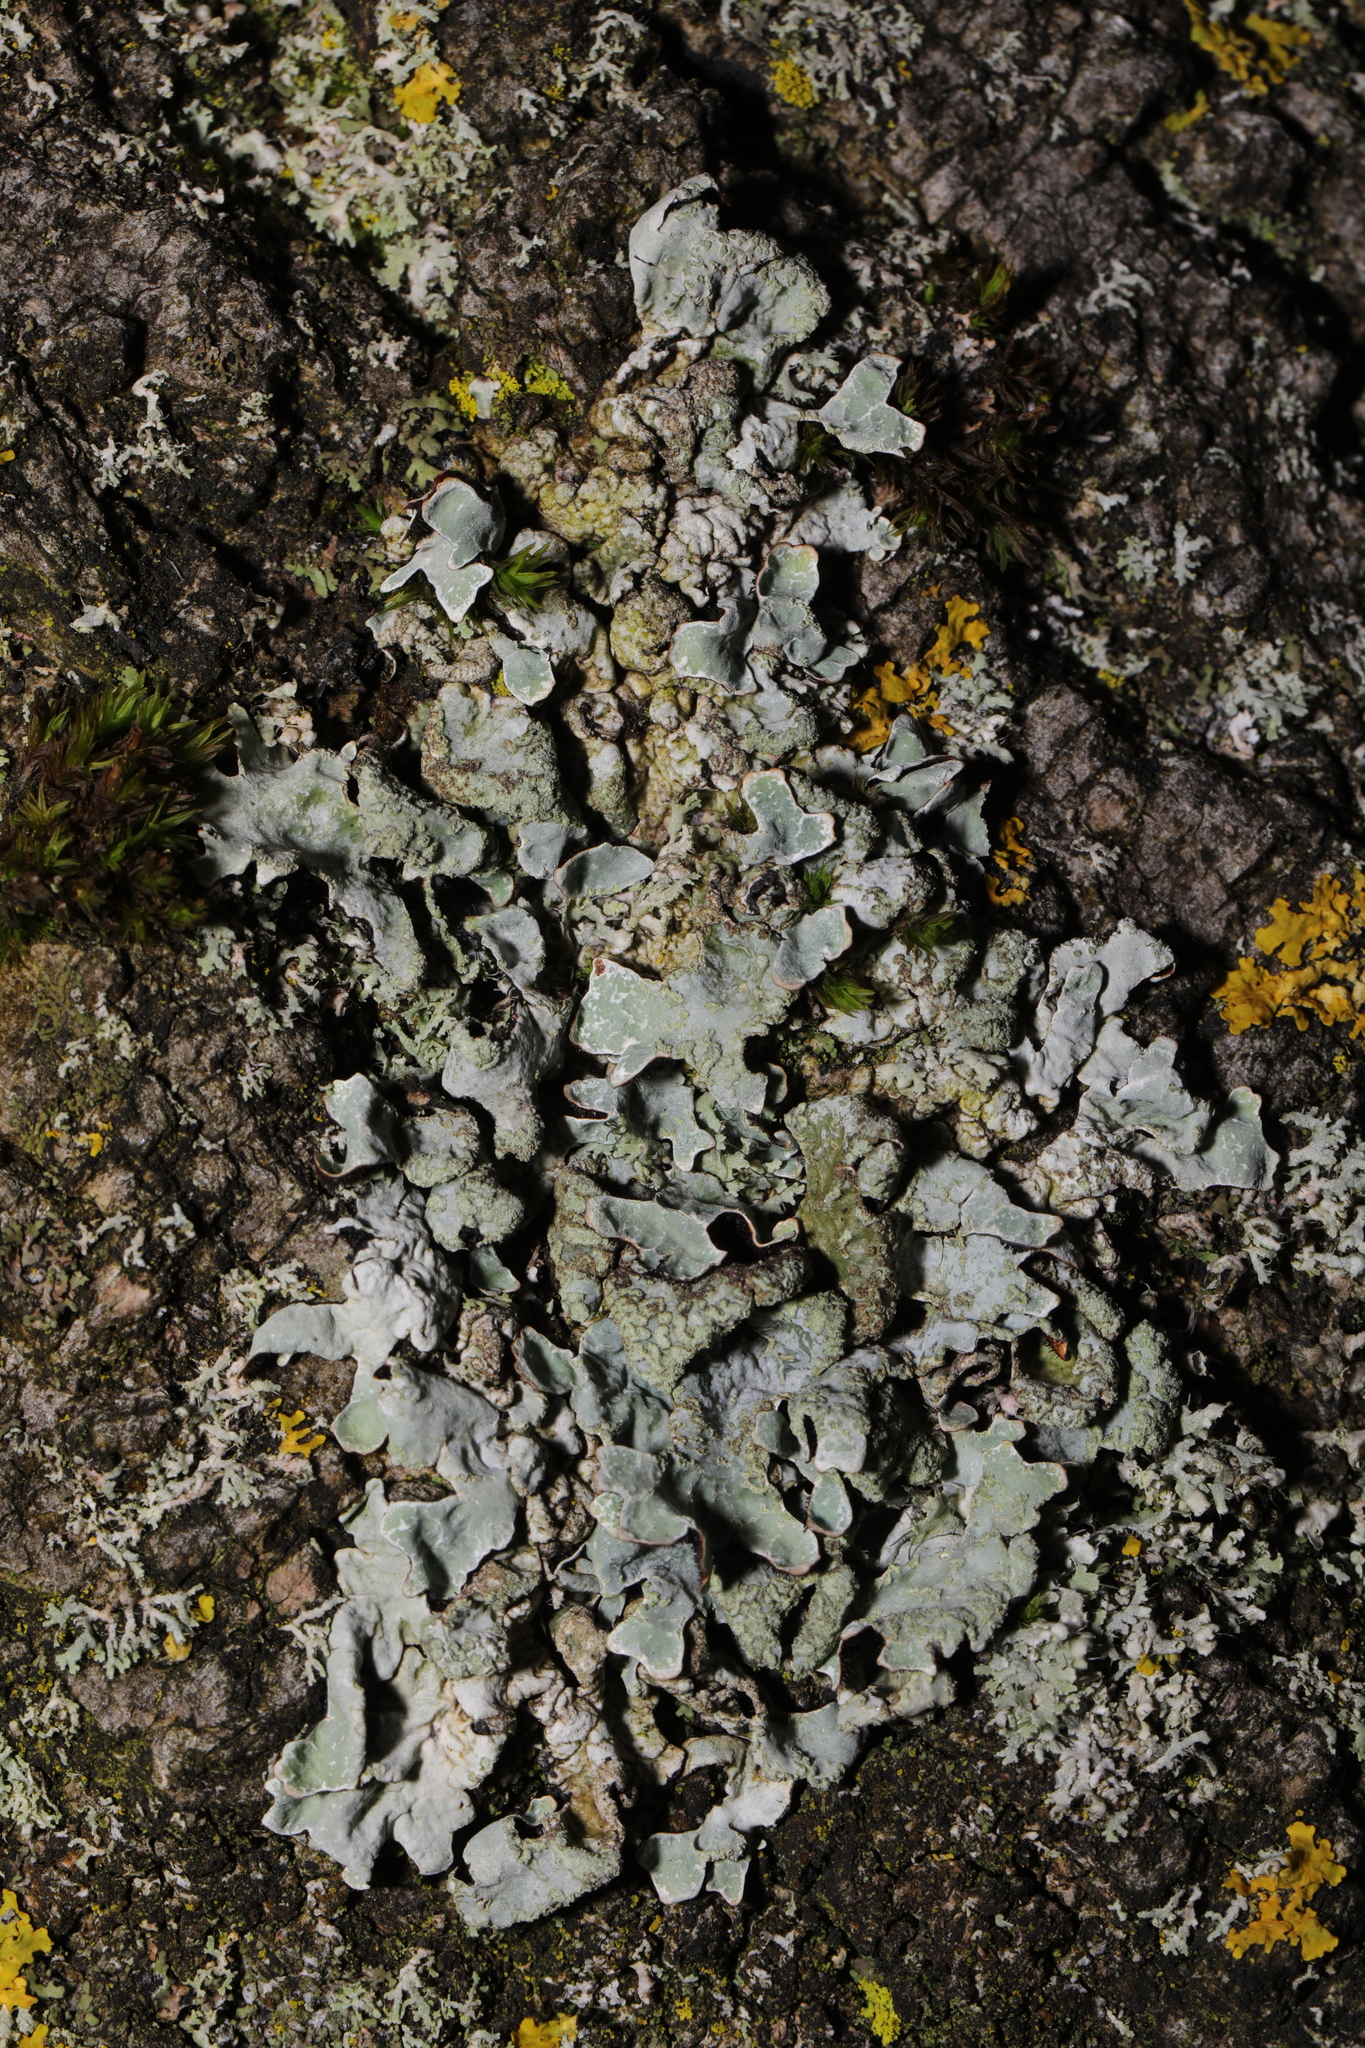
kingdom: Fungi
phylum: Ascomycota
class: Lecanoromycetes
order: Lecanorales
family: Parmeliaceae
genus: Parmelia
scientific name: Parmelia sulcata
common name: Netted shield lichen
